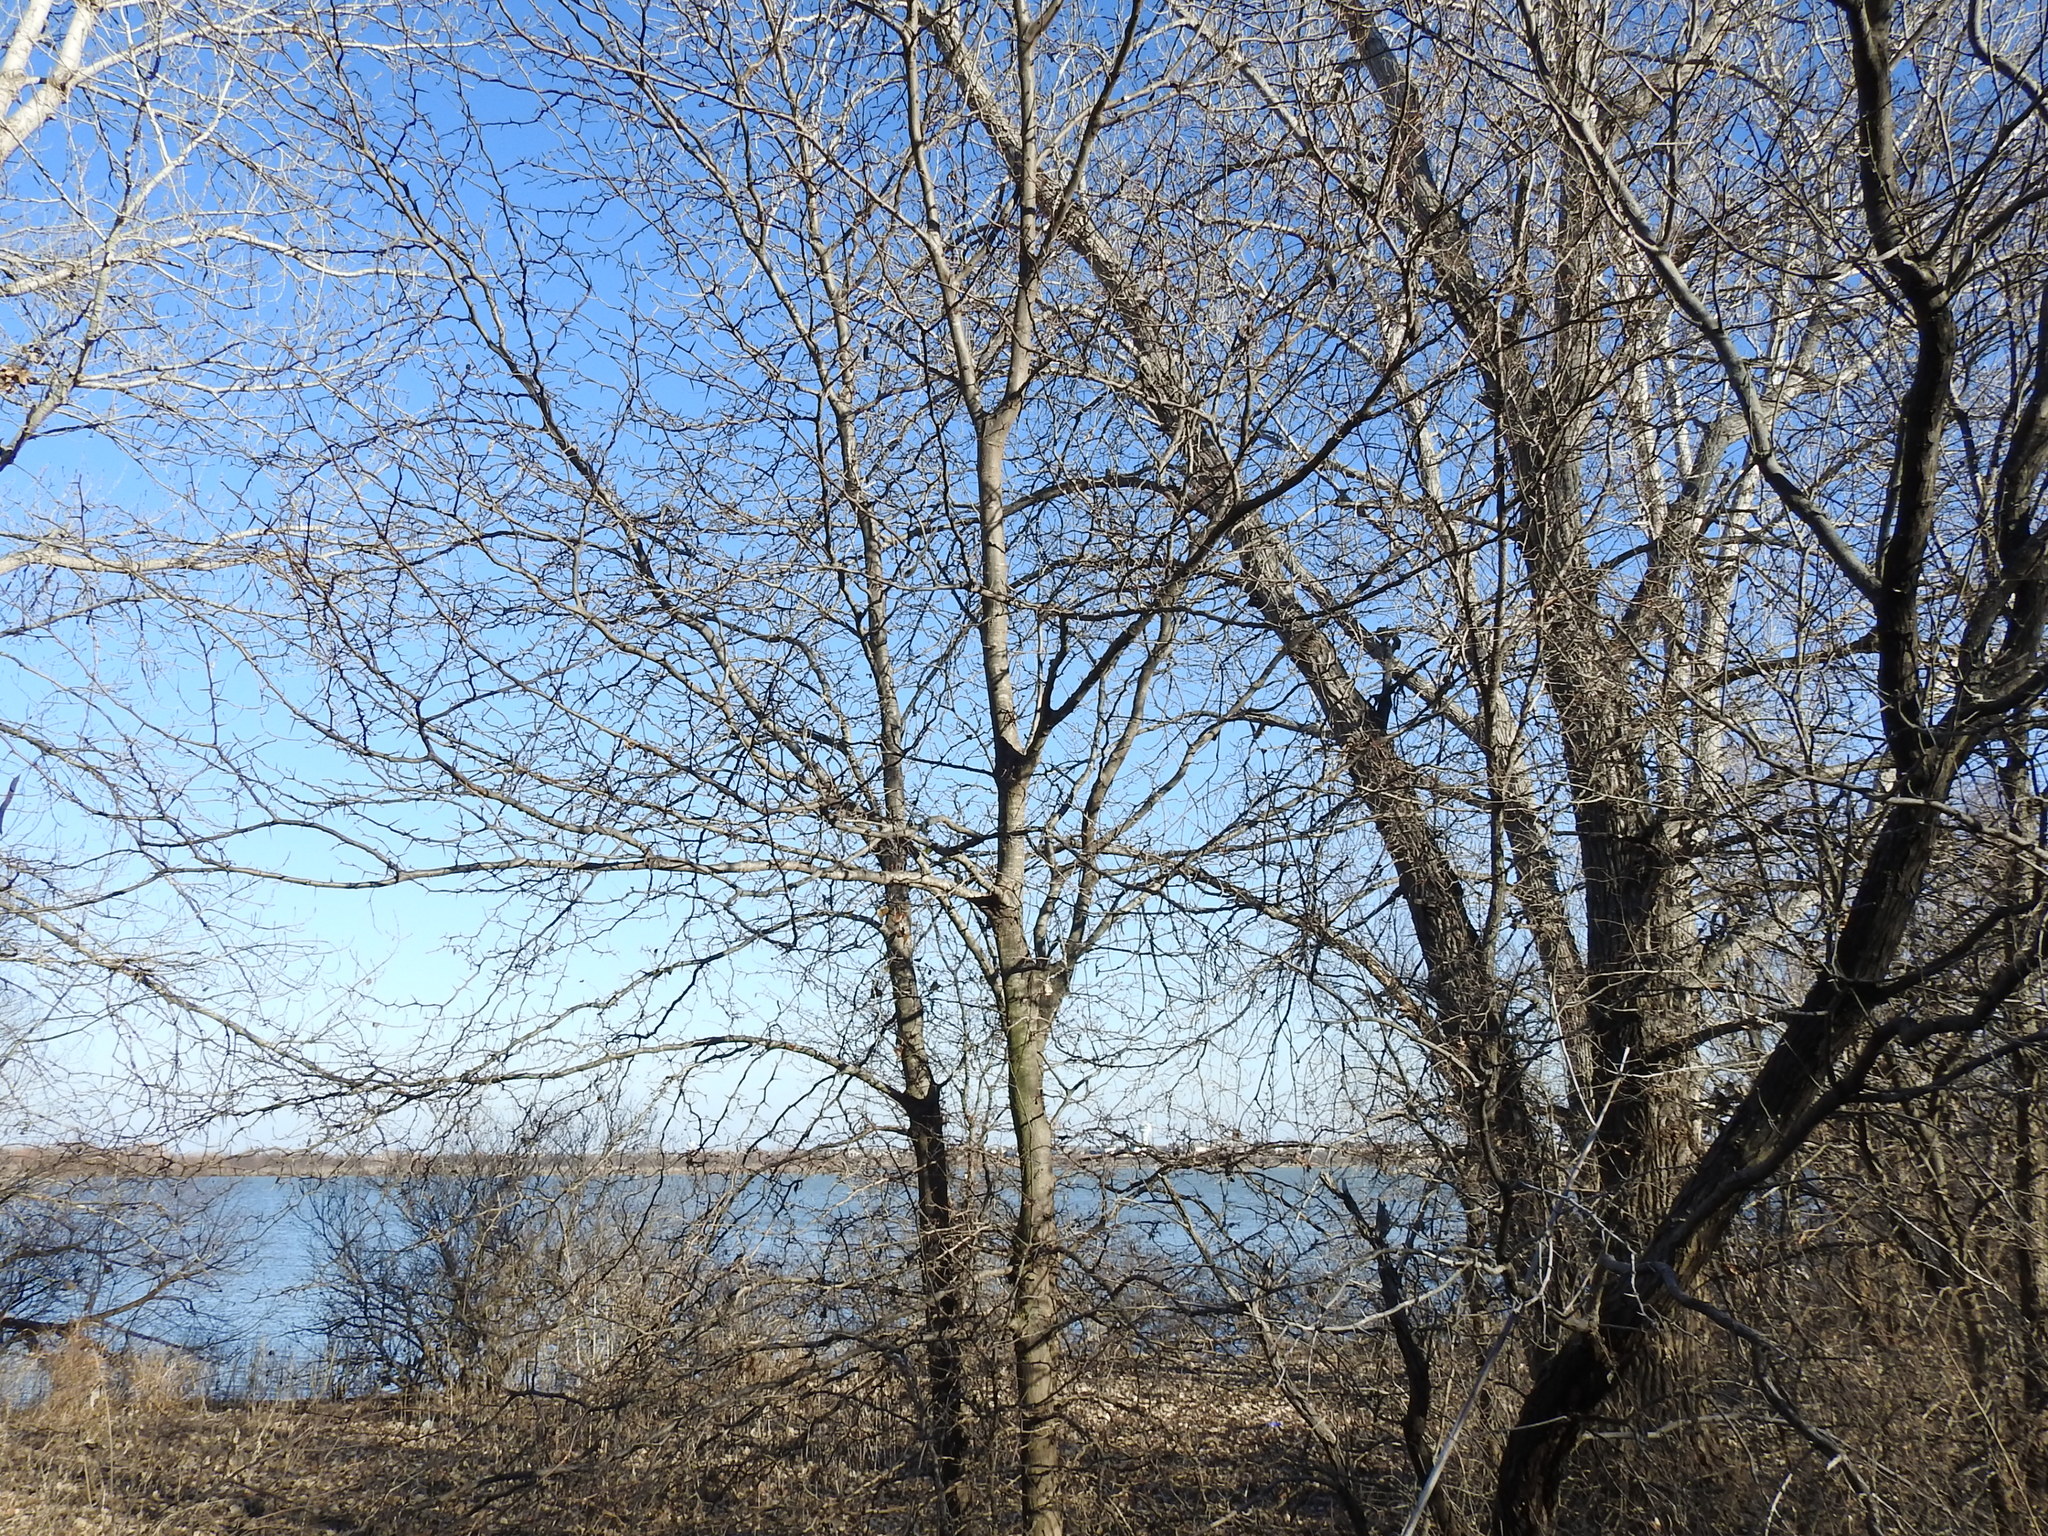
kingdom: Plantae
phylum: Tracheophyta
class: Magnoliopsida
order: Fabales
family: Fabaceae
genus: Gleditsia
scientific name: Gleditsia triacanthos
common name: Common honeylocust
